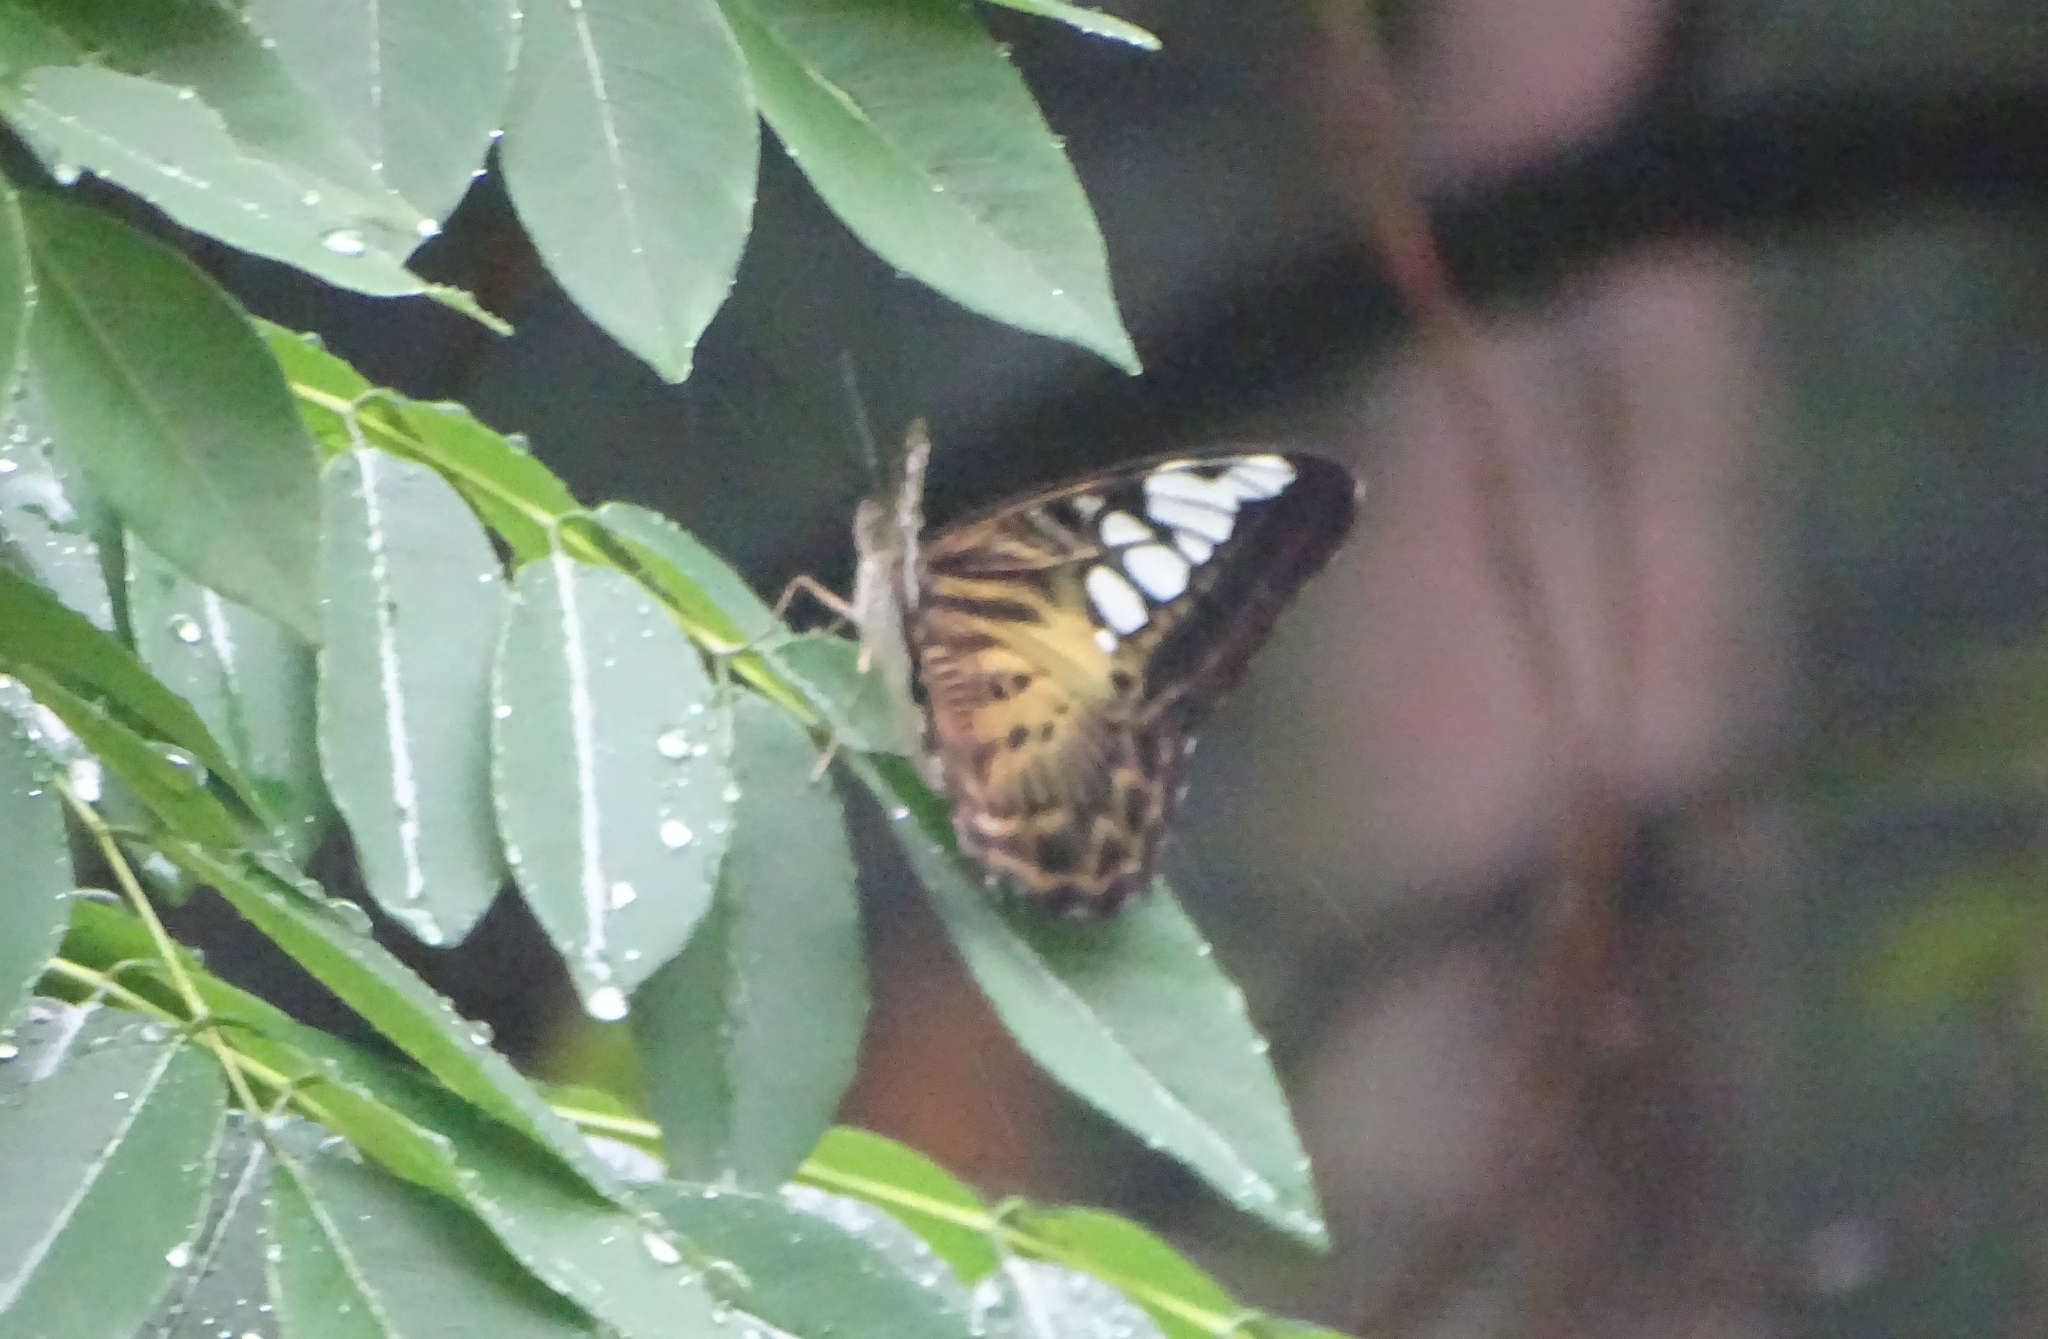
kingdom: Animalia
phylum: Arthropoda
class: Insecta
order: Lepidoptera
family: Nymphalidae
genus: Kallima
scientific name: Kallima sylvia
